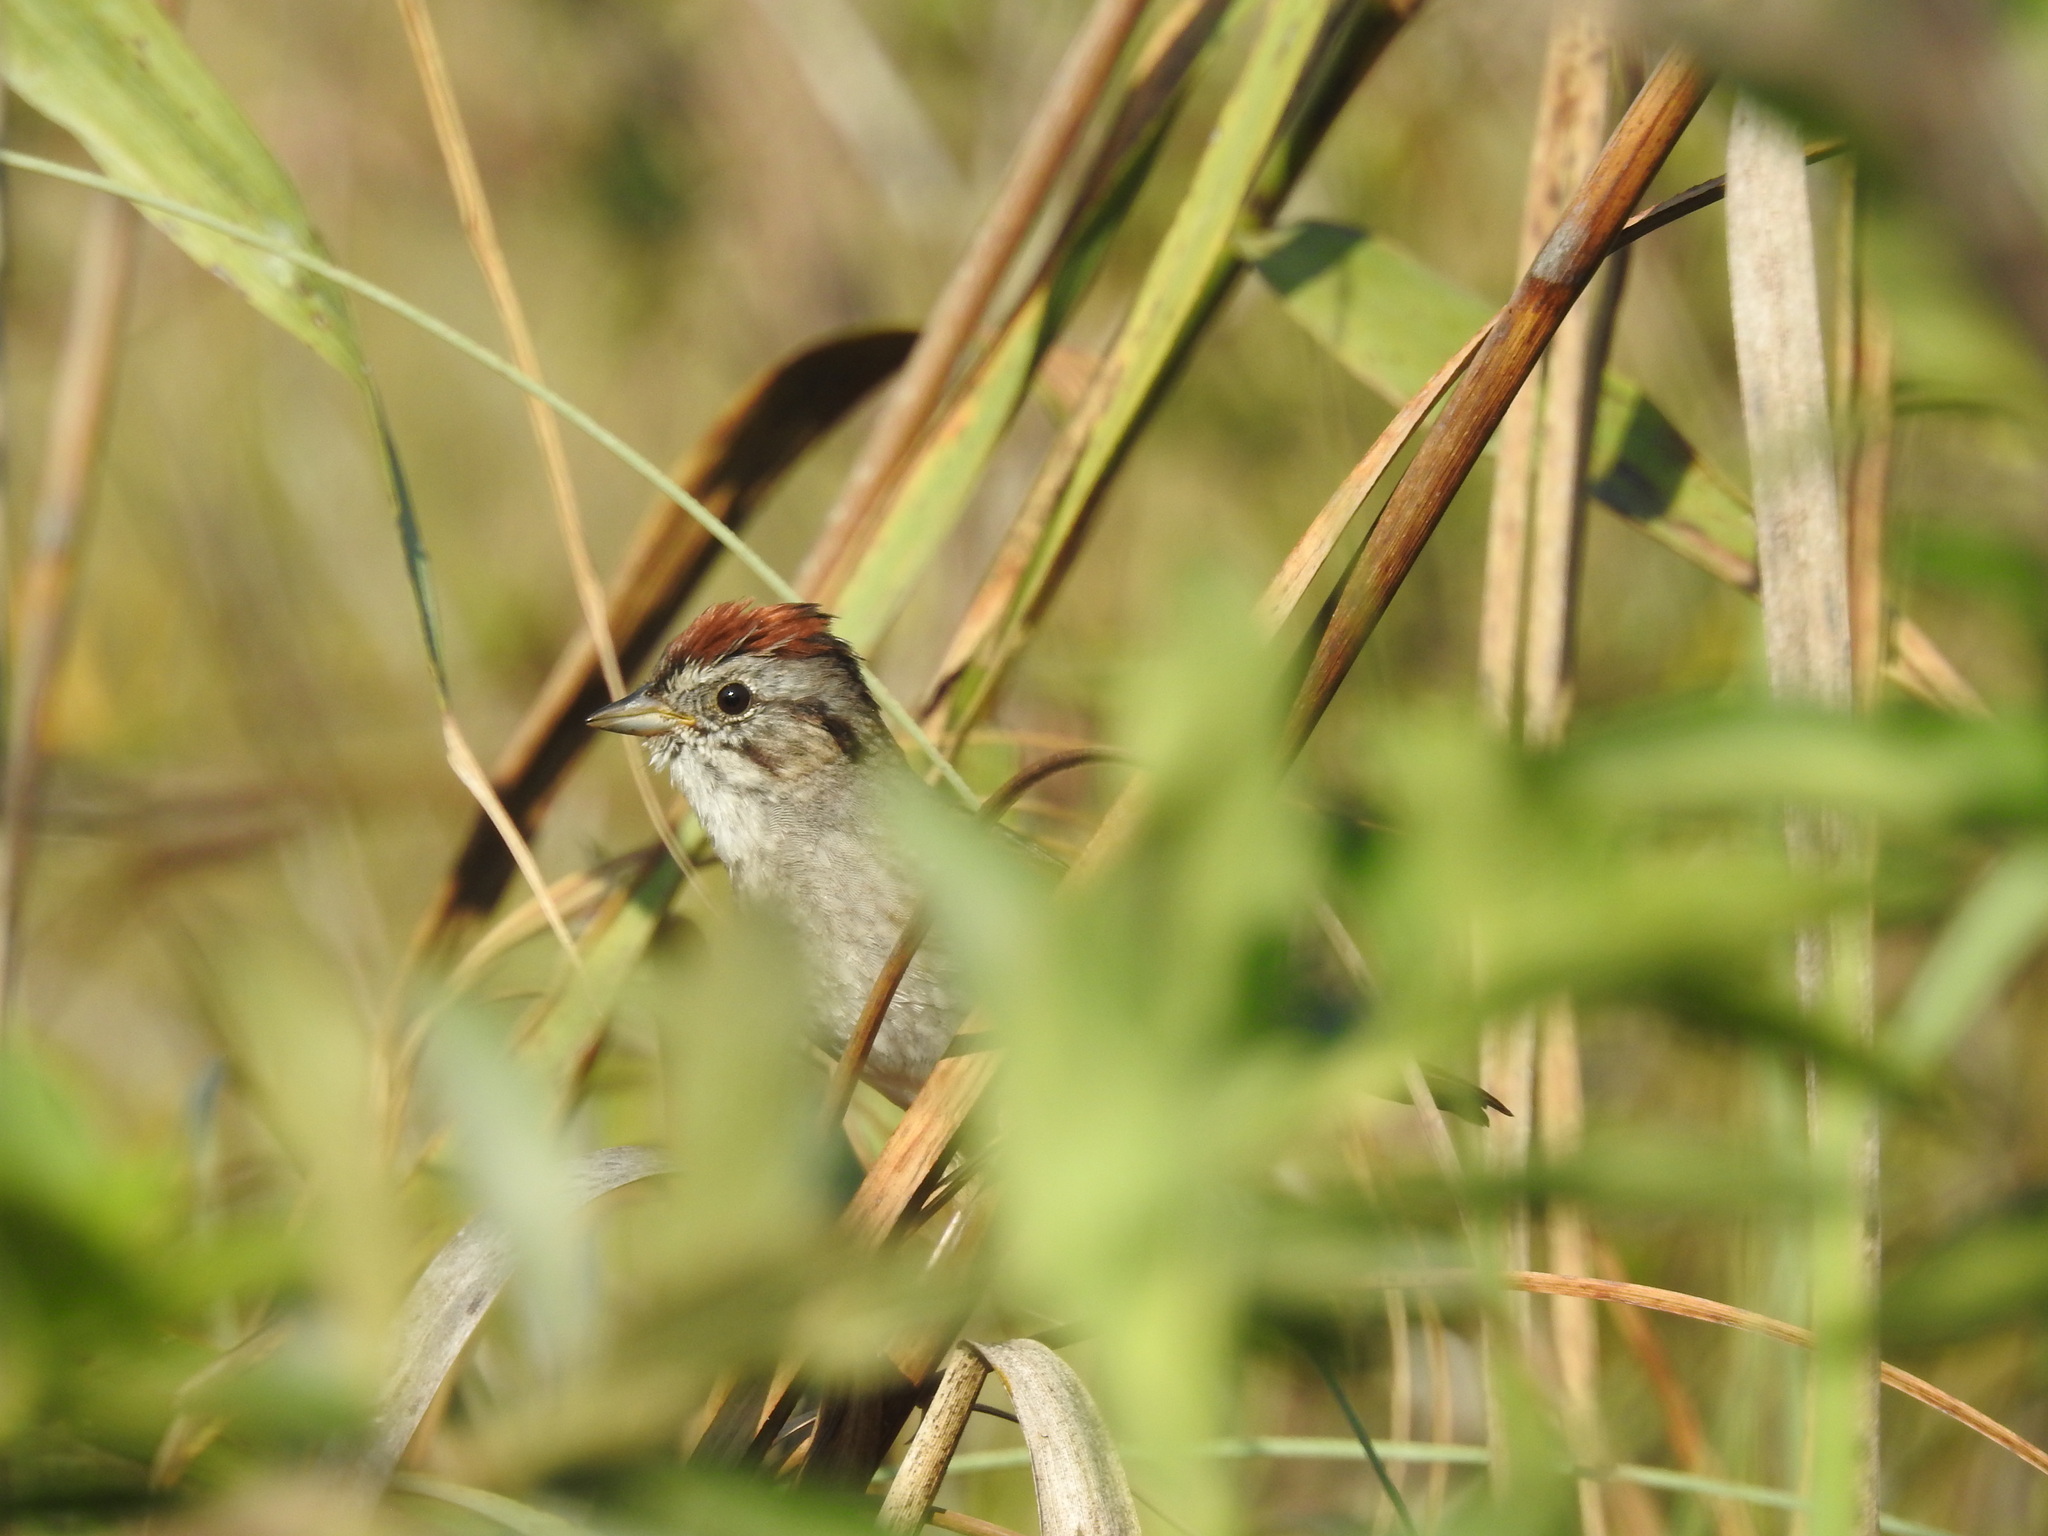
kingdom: Animalia
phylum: Chordata
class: Aves
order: Passeriformes
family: Passerellidae
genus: Melospiza
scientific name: Melospiza georgiana
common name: Swamp sparrow
